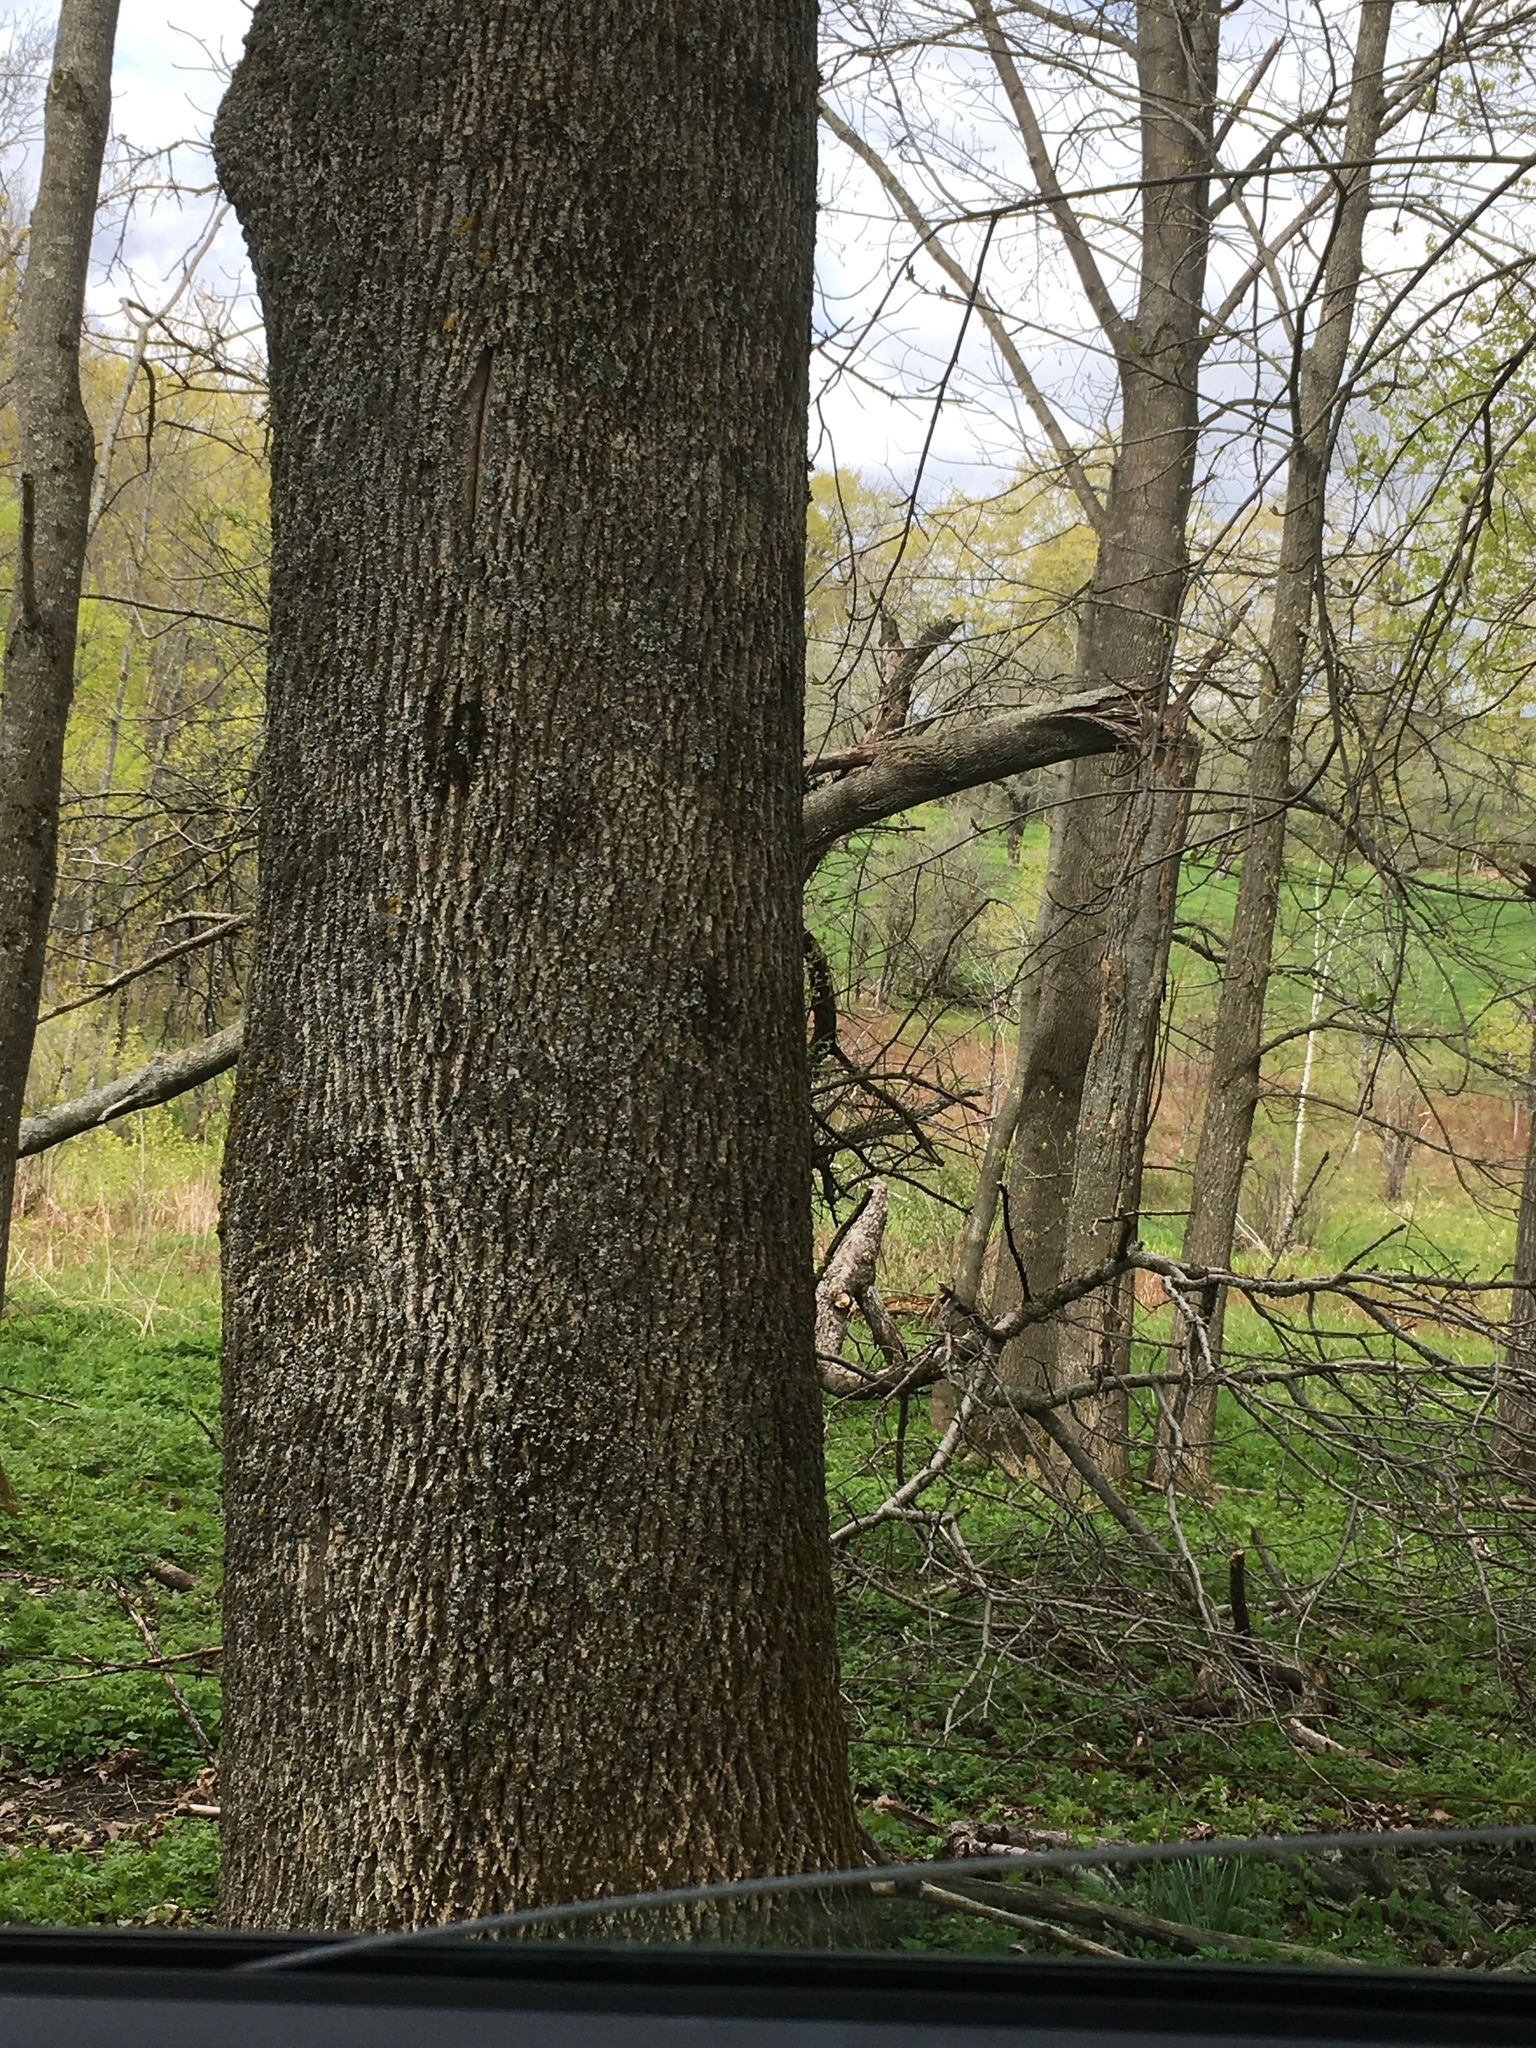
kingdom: Plantae
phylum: Tracheophyta
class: Magnoliopsida
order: Lamiales
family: Oleaceae
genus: Fraxinus
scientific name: Fraxinus americana
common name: White ash
